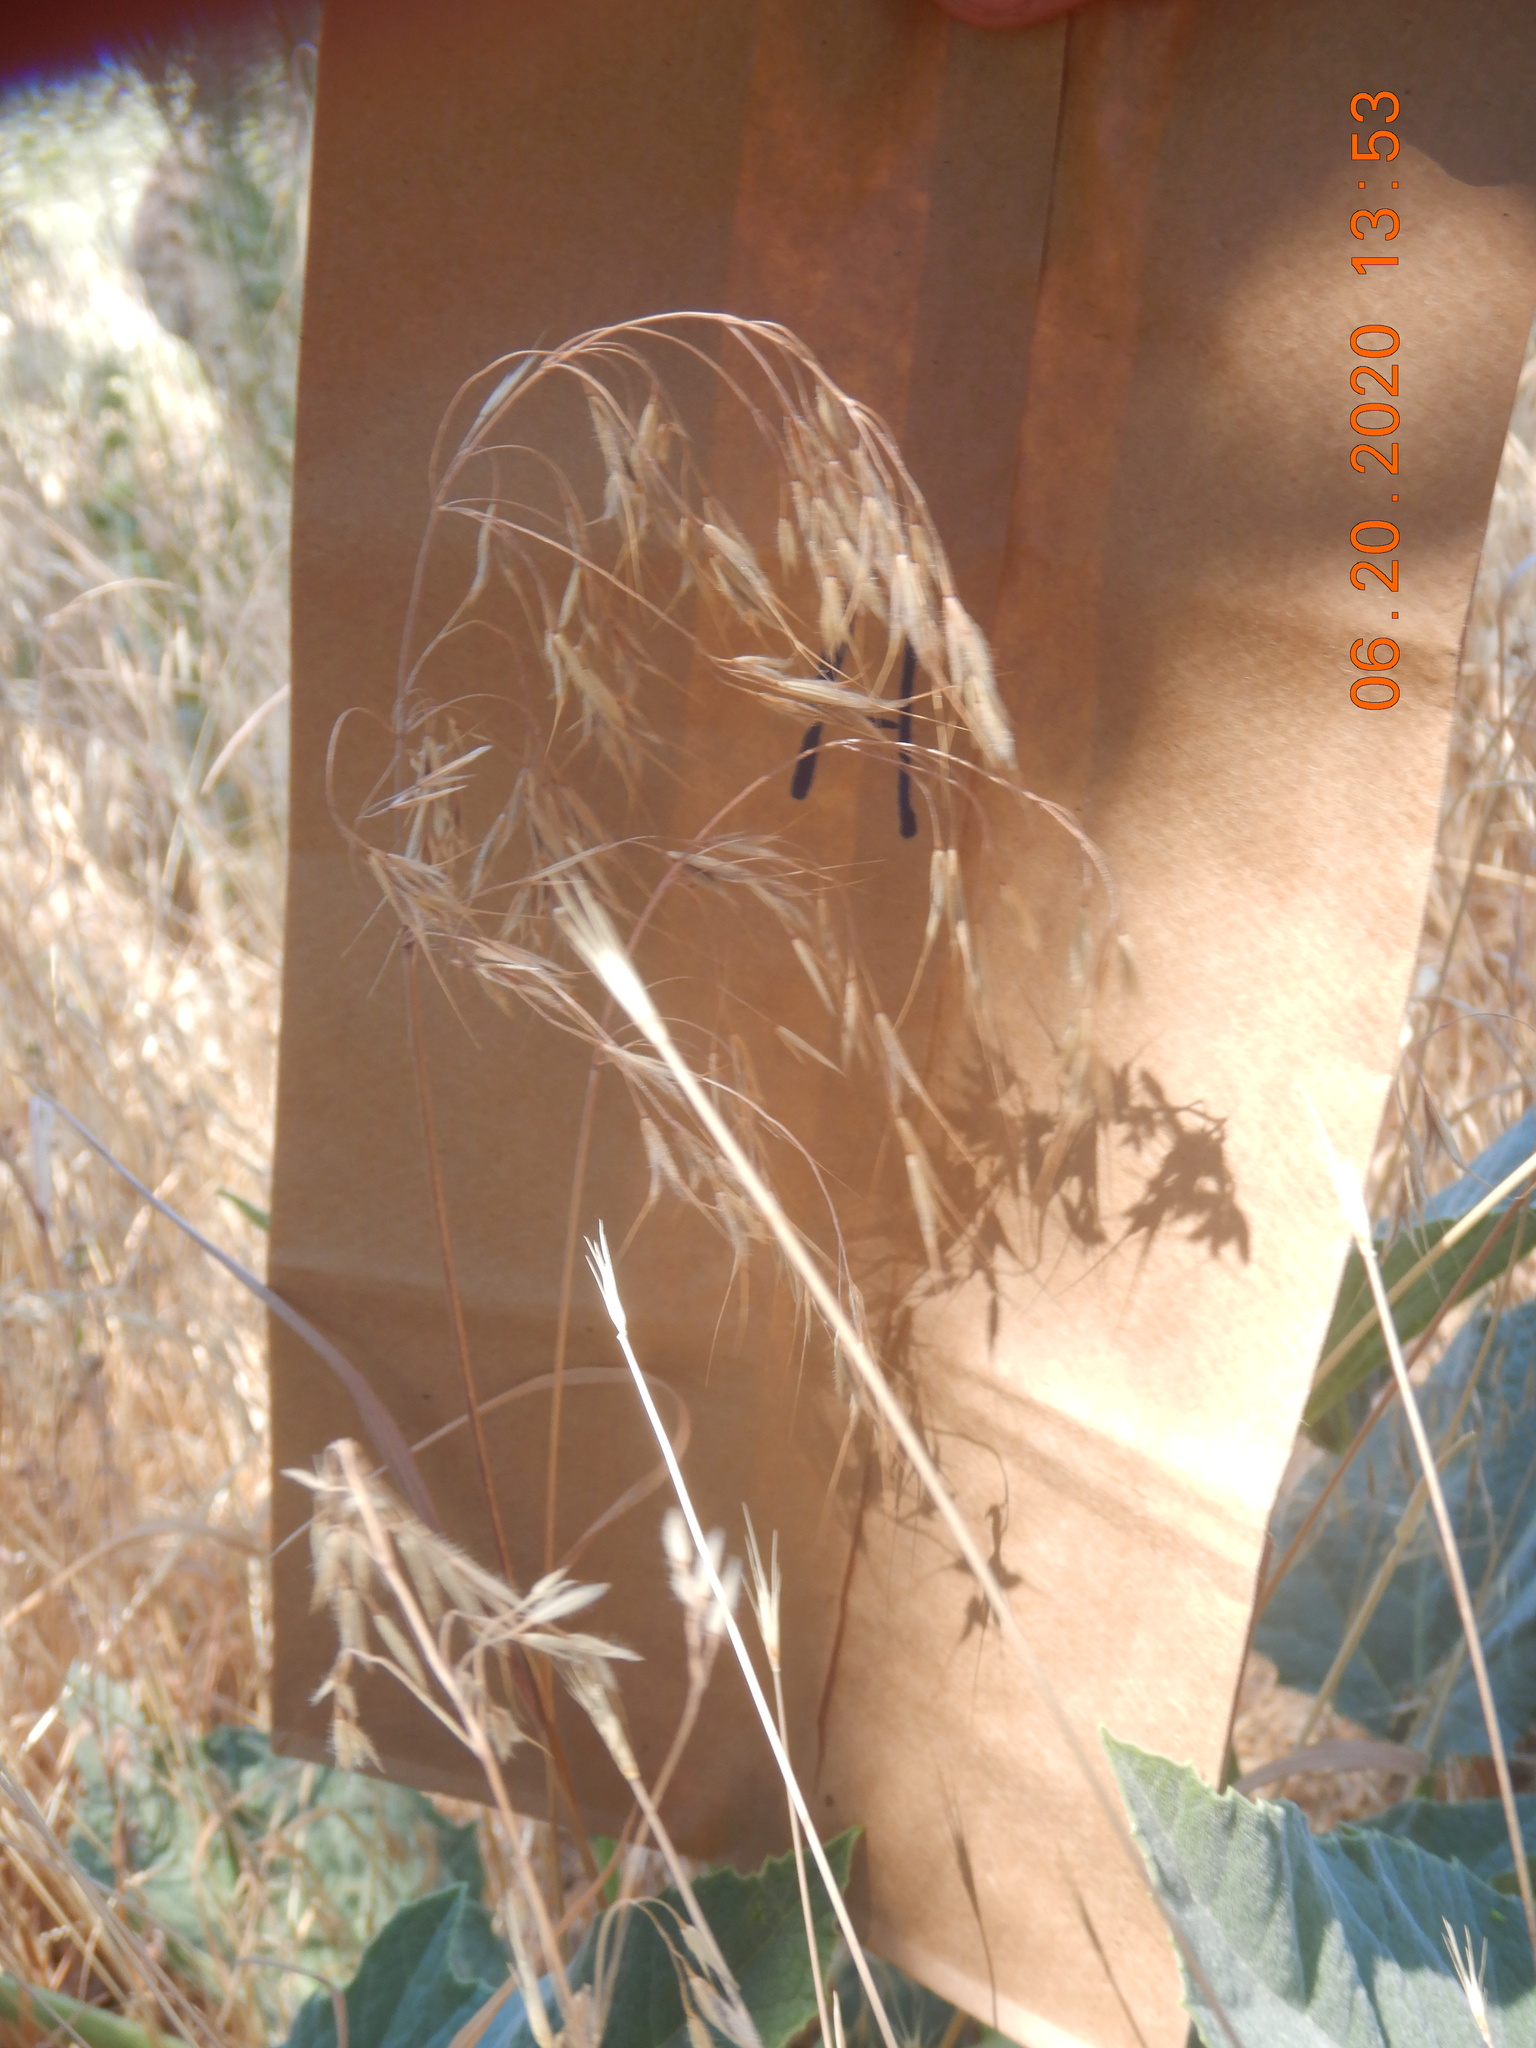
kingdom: Plantae
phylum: Tracheophyta
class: Liliopsida
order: Poales
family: Poaceae
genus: Bromus
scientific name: Bromus tectorum
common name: Cheatgrass
